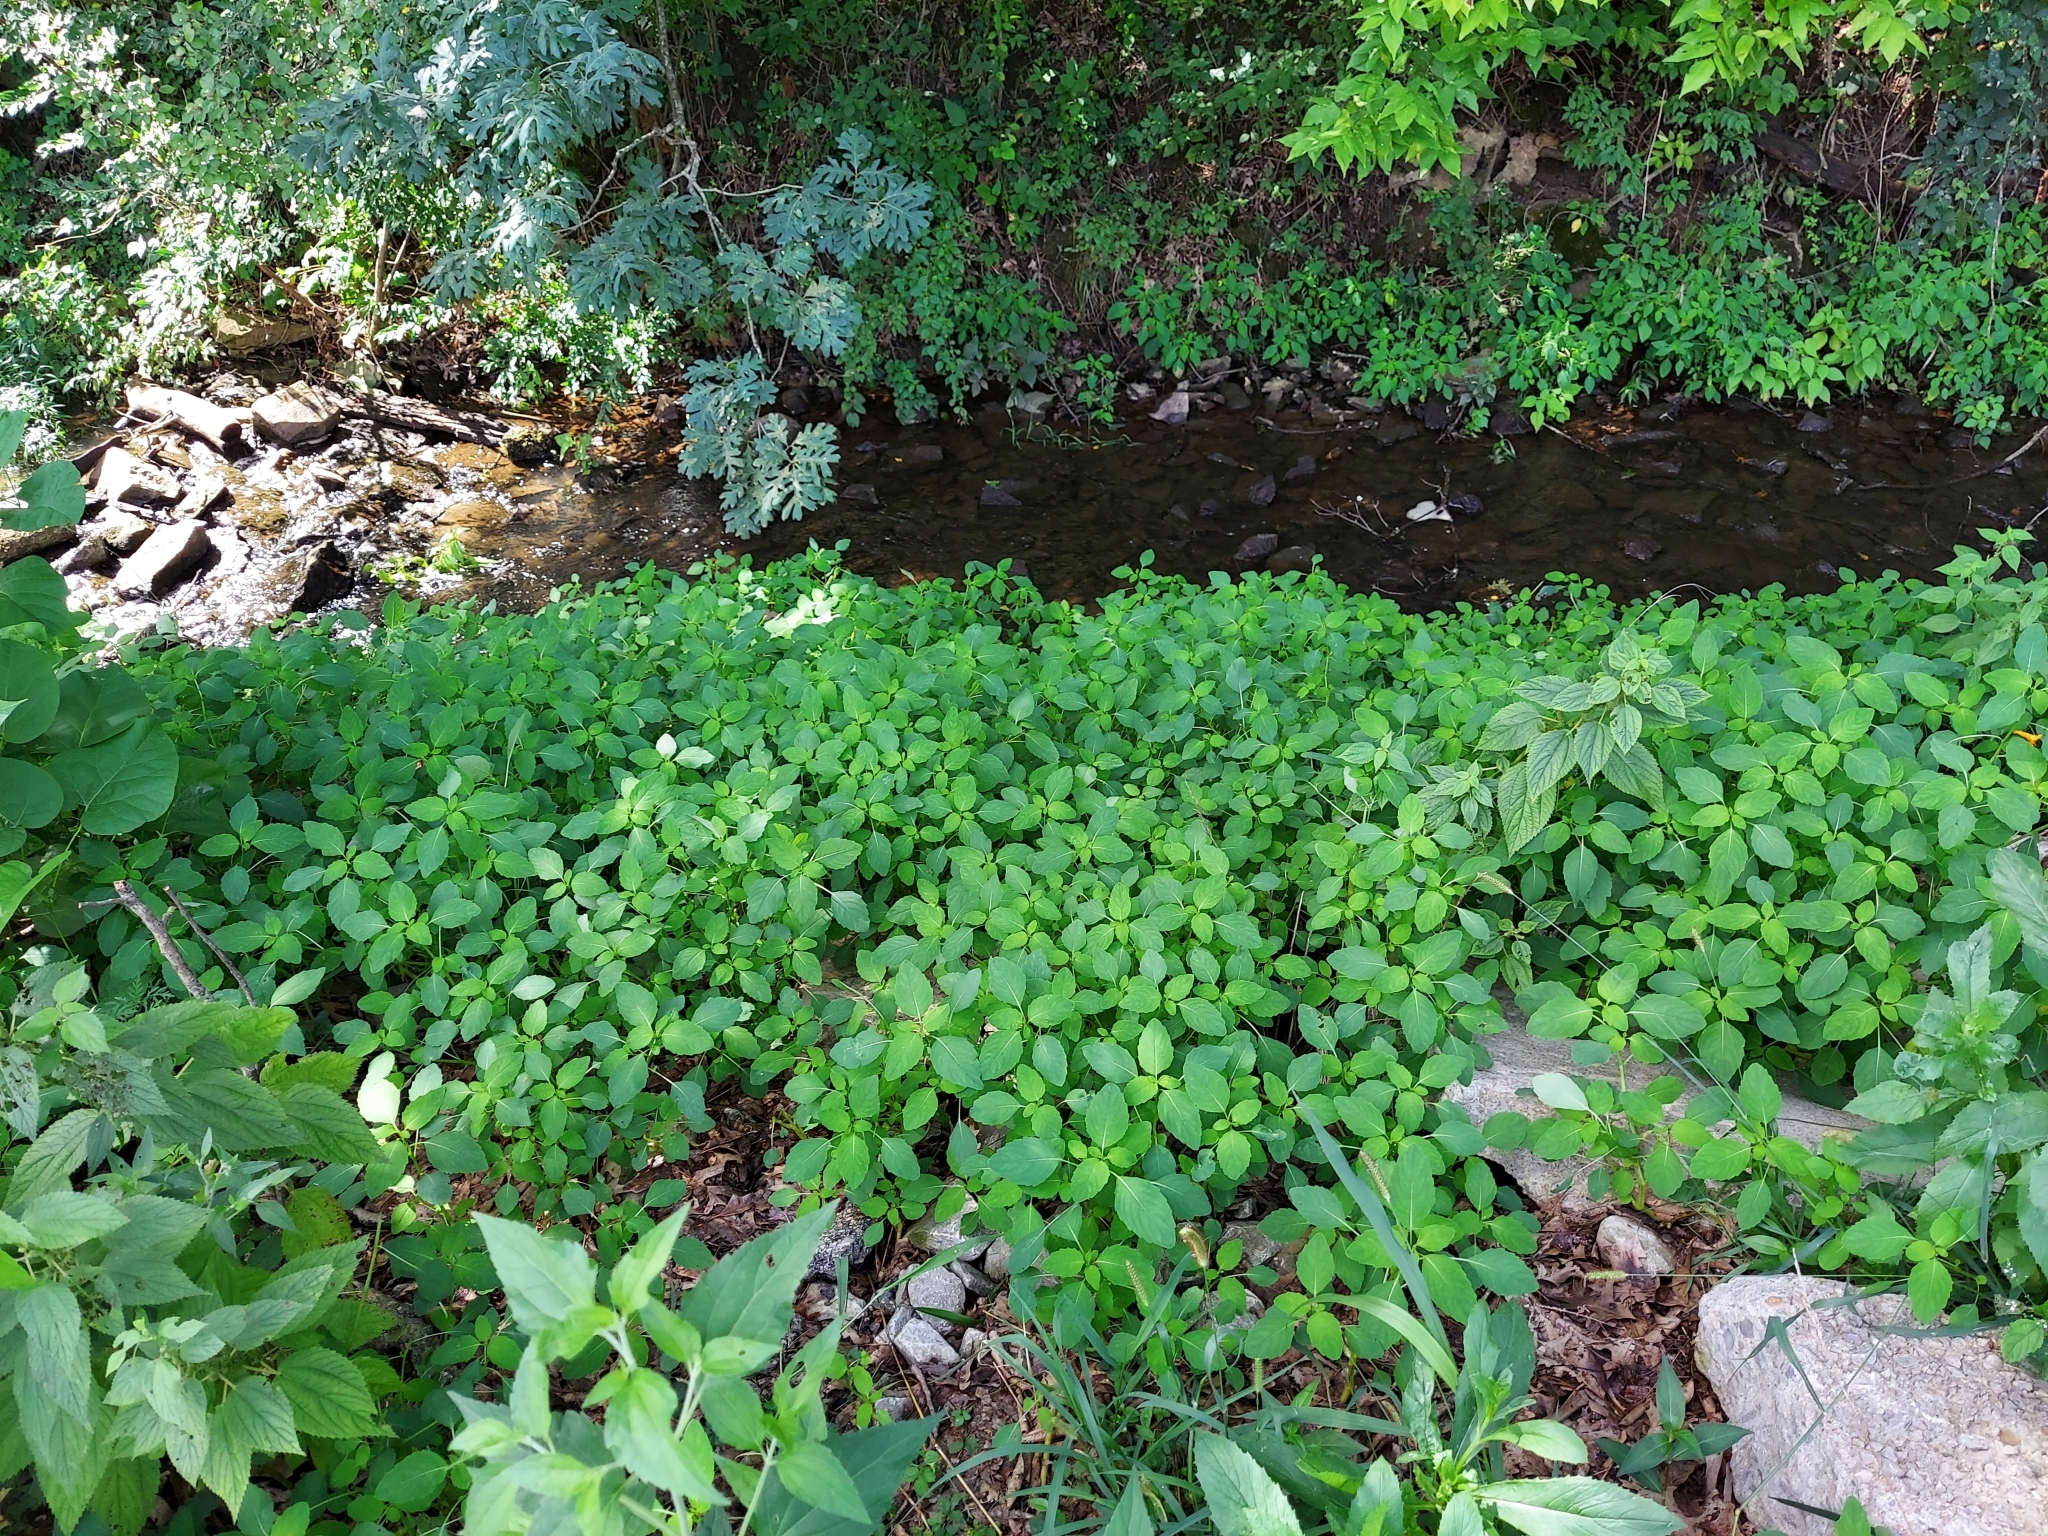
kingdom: Plantae
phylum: Tracheophyta
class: Magnoliopsida
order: Ericales
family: Balsaminaceae
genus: Impatiens
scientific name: Impatiens capensis
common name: Orange balsam
